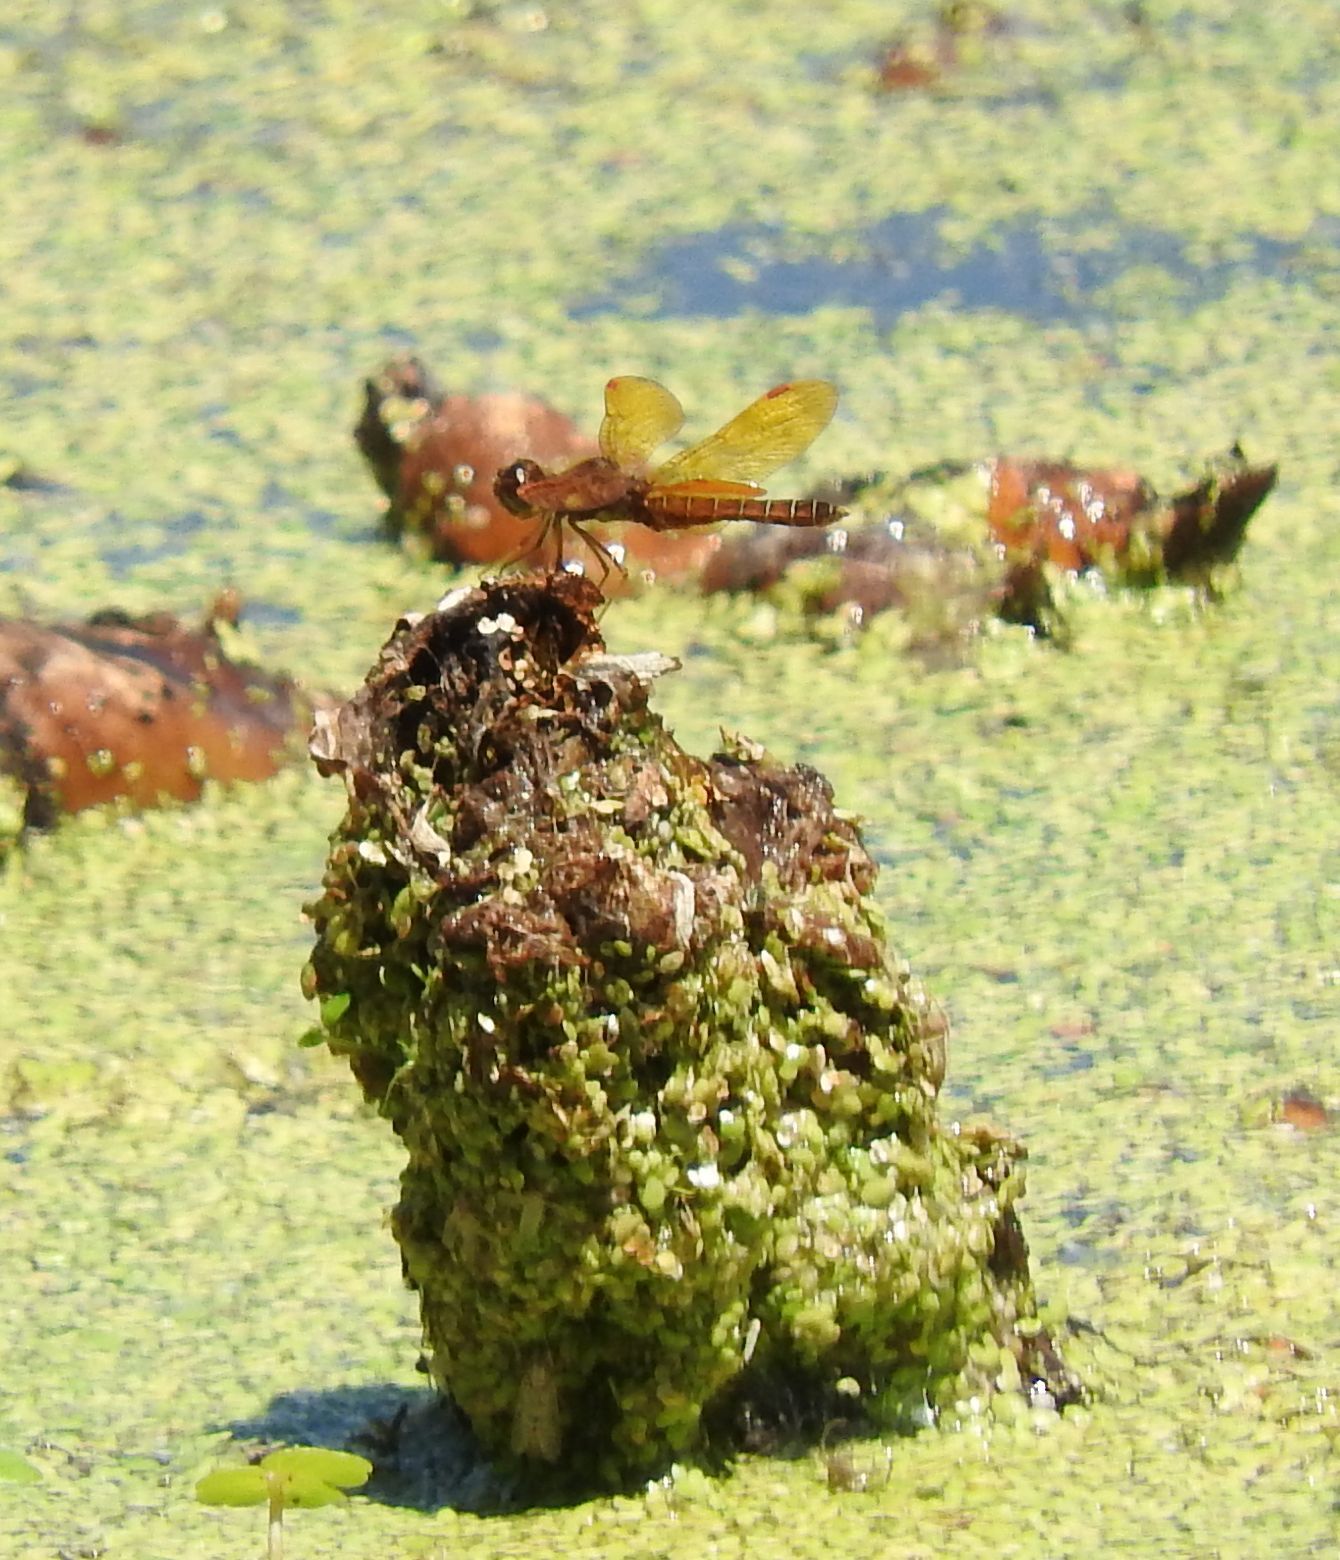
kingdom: Animalia
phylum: Arthropoda
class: Insecta
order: Odonata
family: Libellulidae
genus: Perithemis
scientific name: Perithemis tenera
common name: Eastern amberwing
